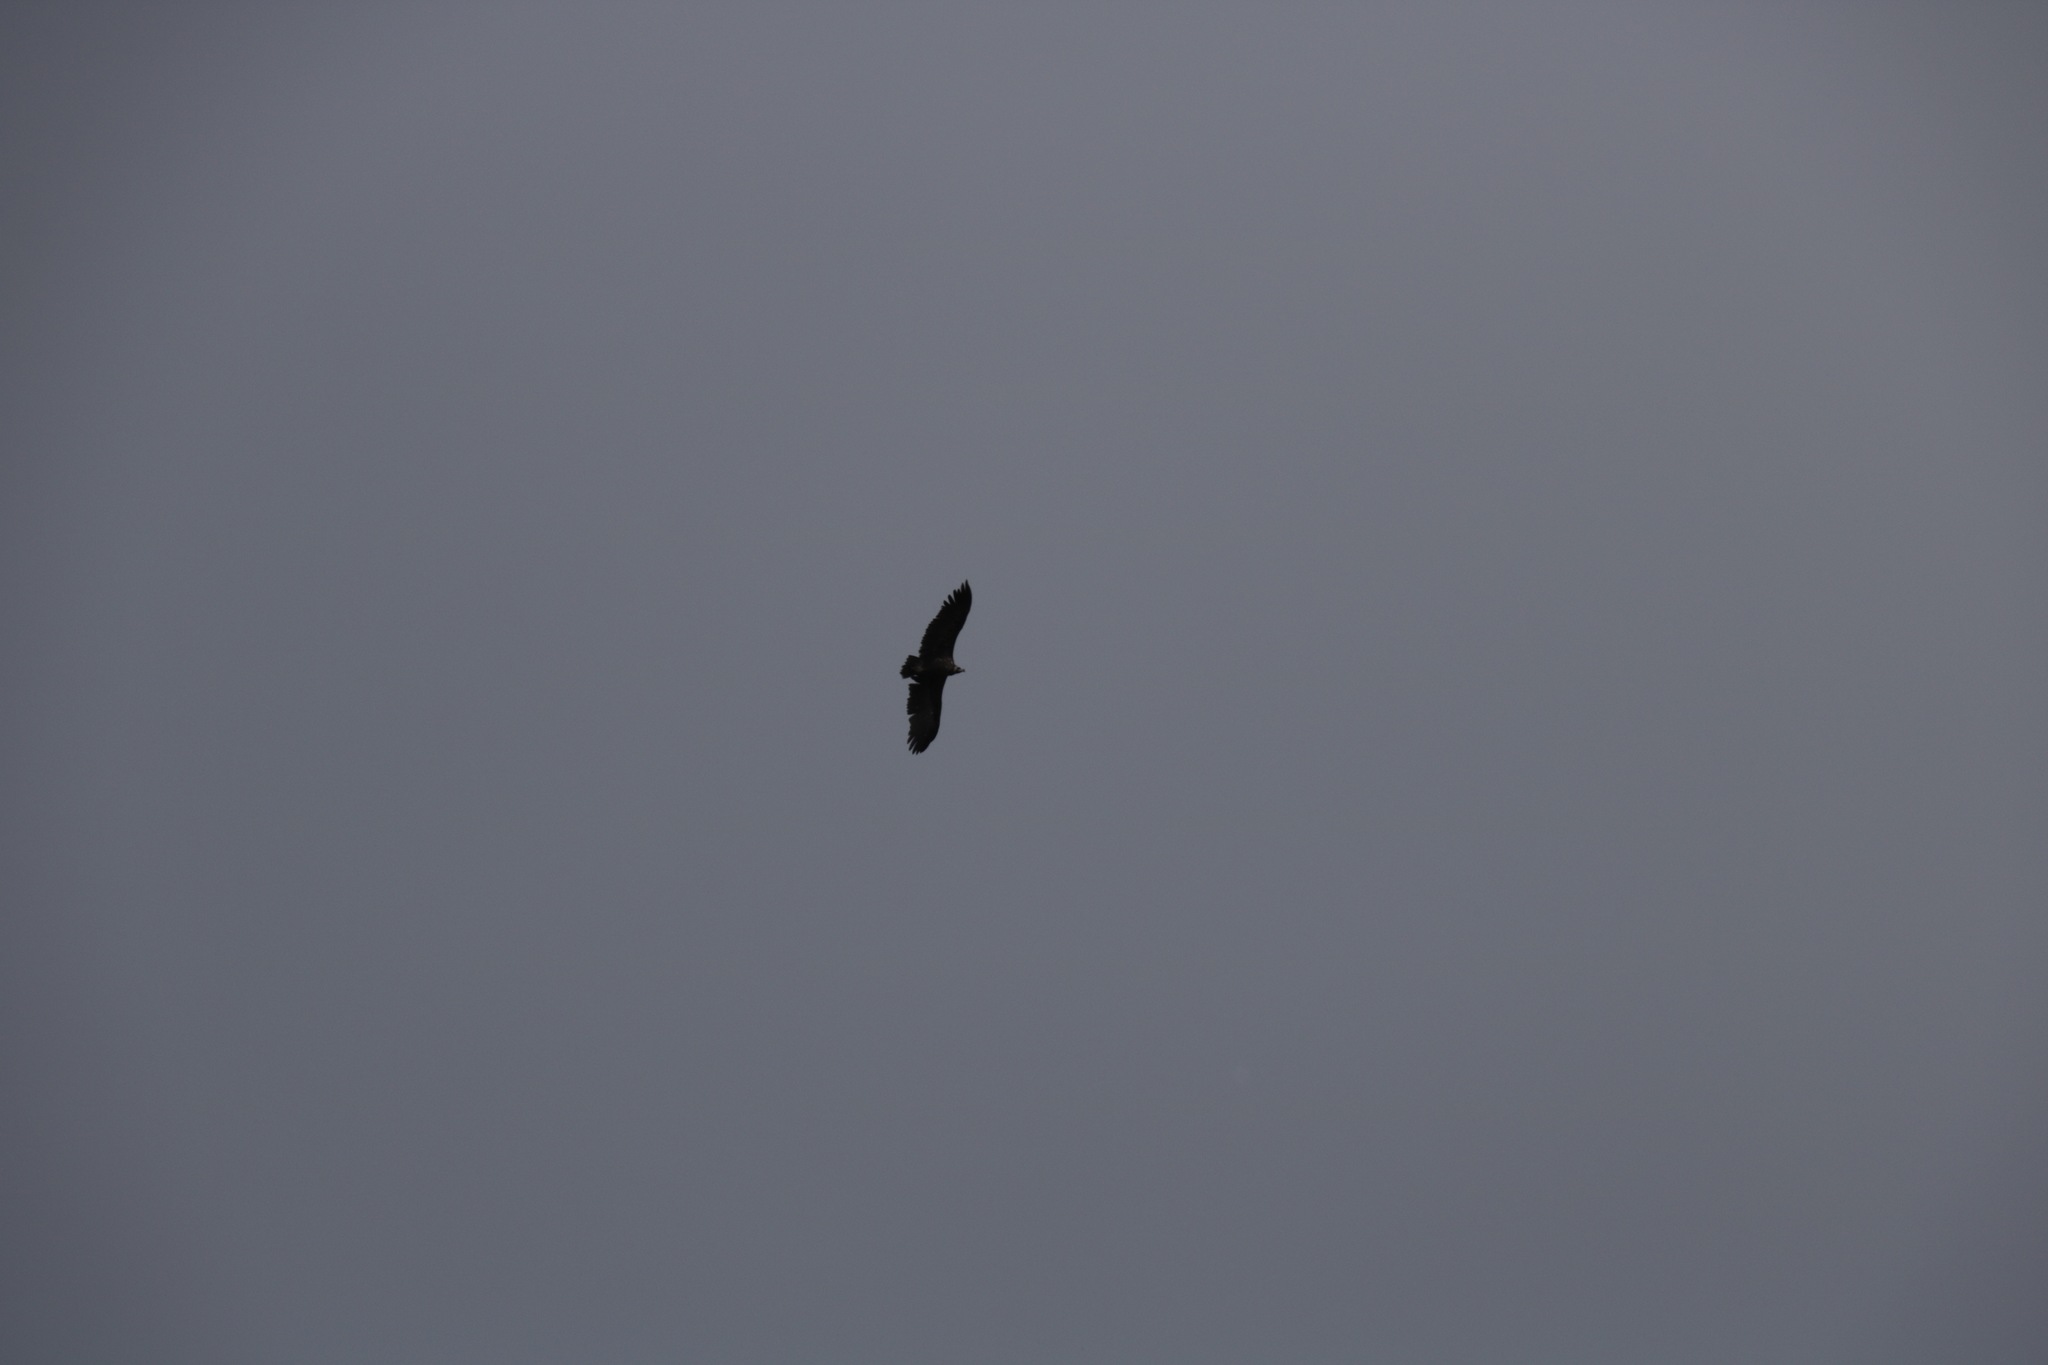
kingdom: Animalia
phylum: Chordata
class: Aves
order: Accipitriformes
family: Accipitridae
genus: Aegypius
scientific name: Aegypius monachus
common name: Cinereous vulture
